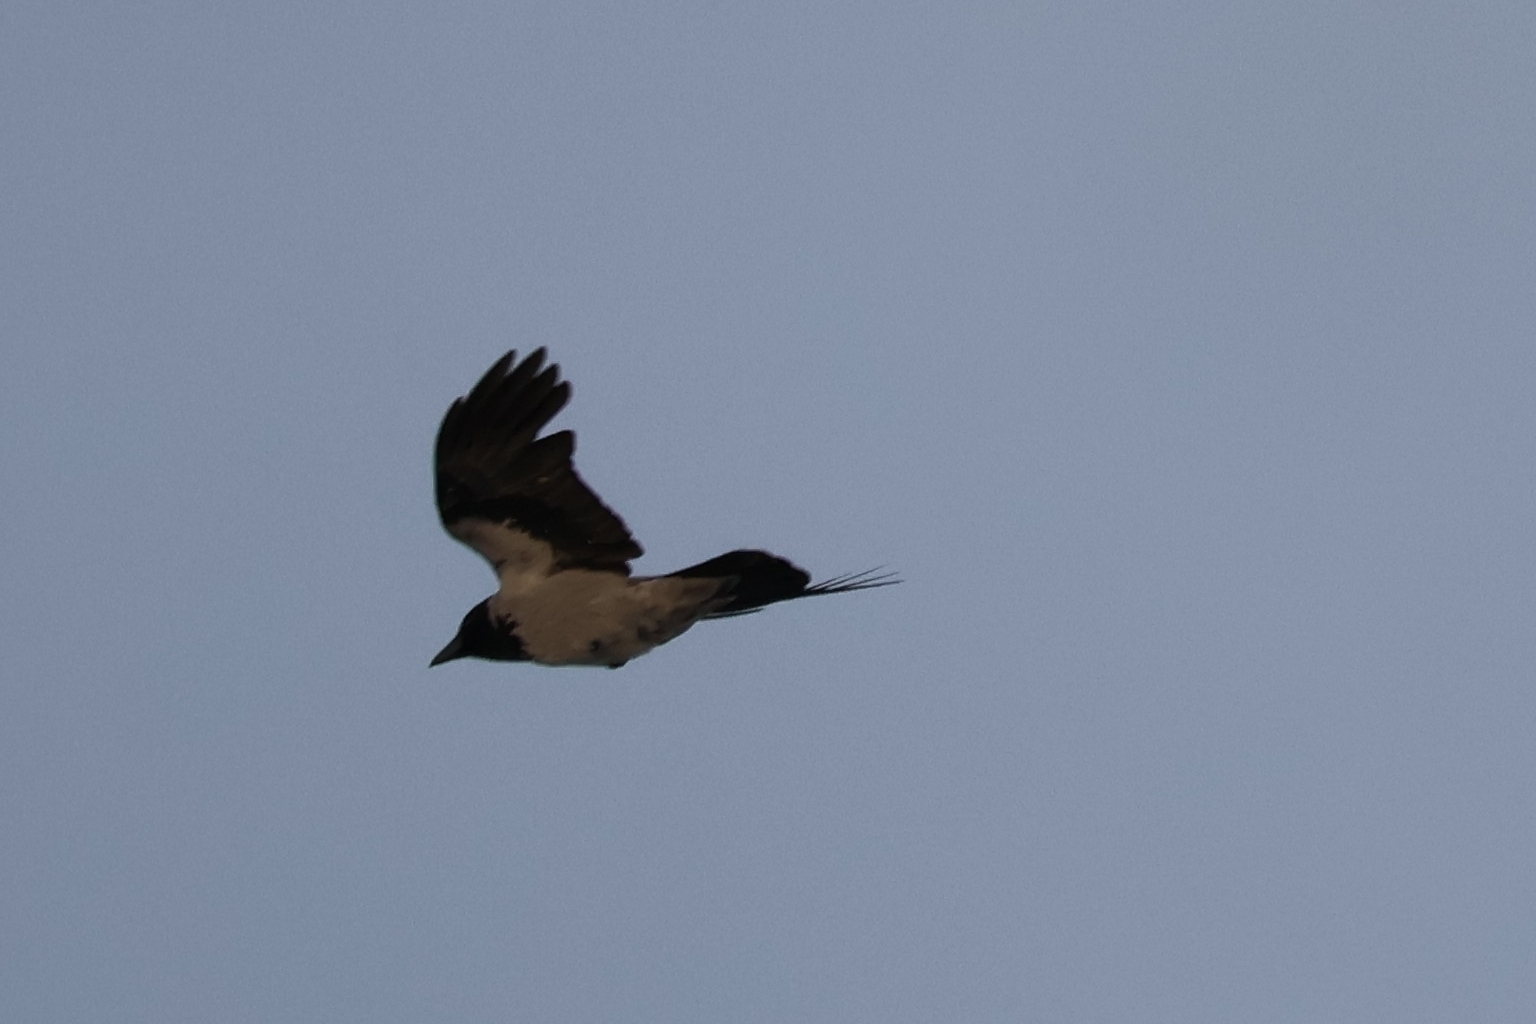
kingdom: Animalia
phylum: Chordata
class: Aves
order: Passeriformes
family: Corvidae
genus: Corvus
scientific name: Corvus cornix
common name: Hooded crow
